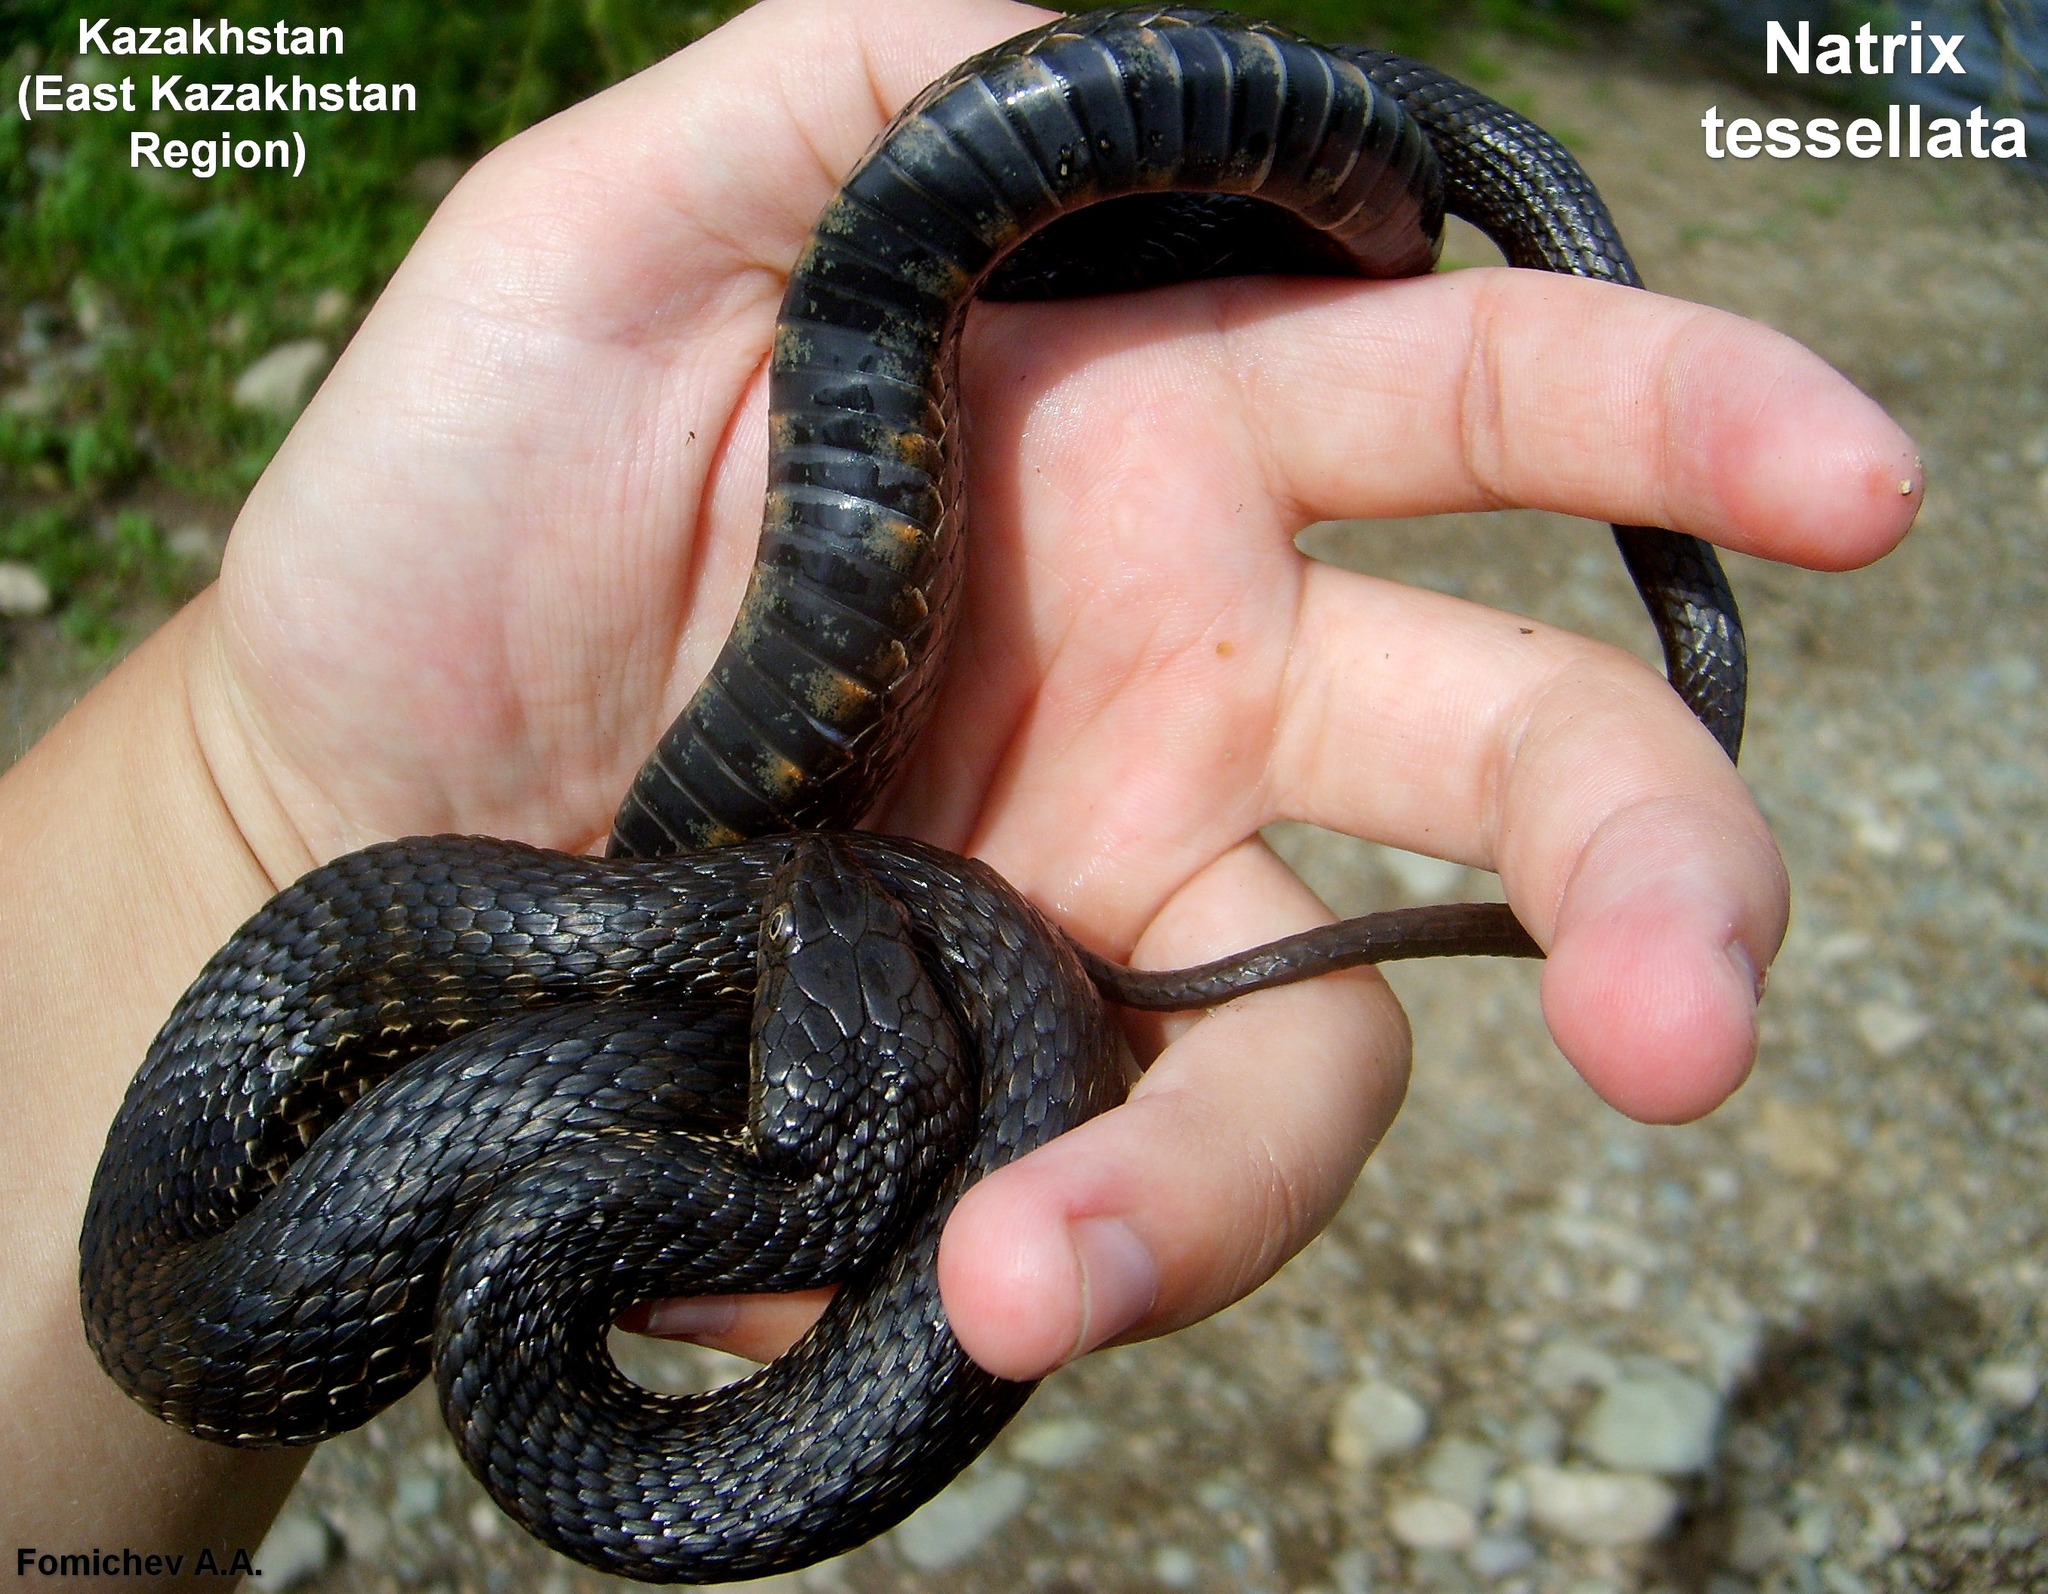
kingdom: Animalia
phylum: Chordata
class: Squamata
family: Colubridae
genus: Natrix
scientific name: Natrix tessellata
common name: Dice snake
